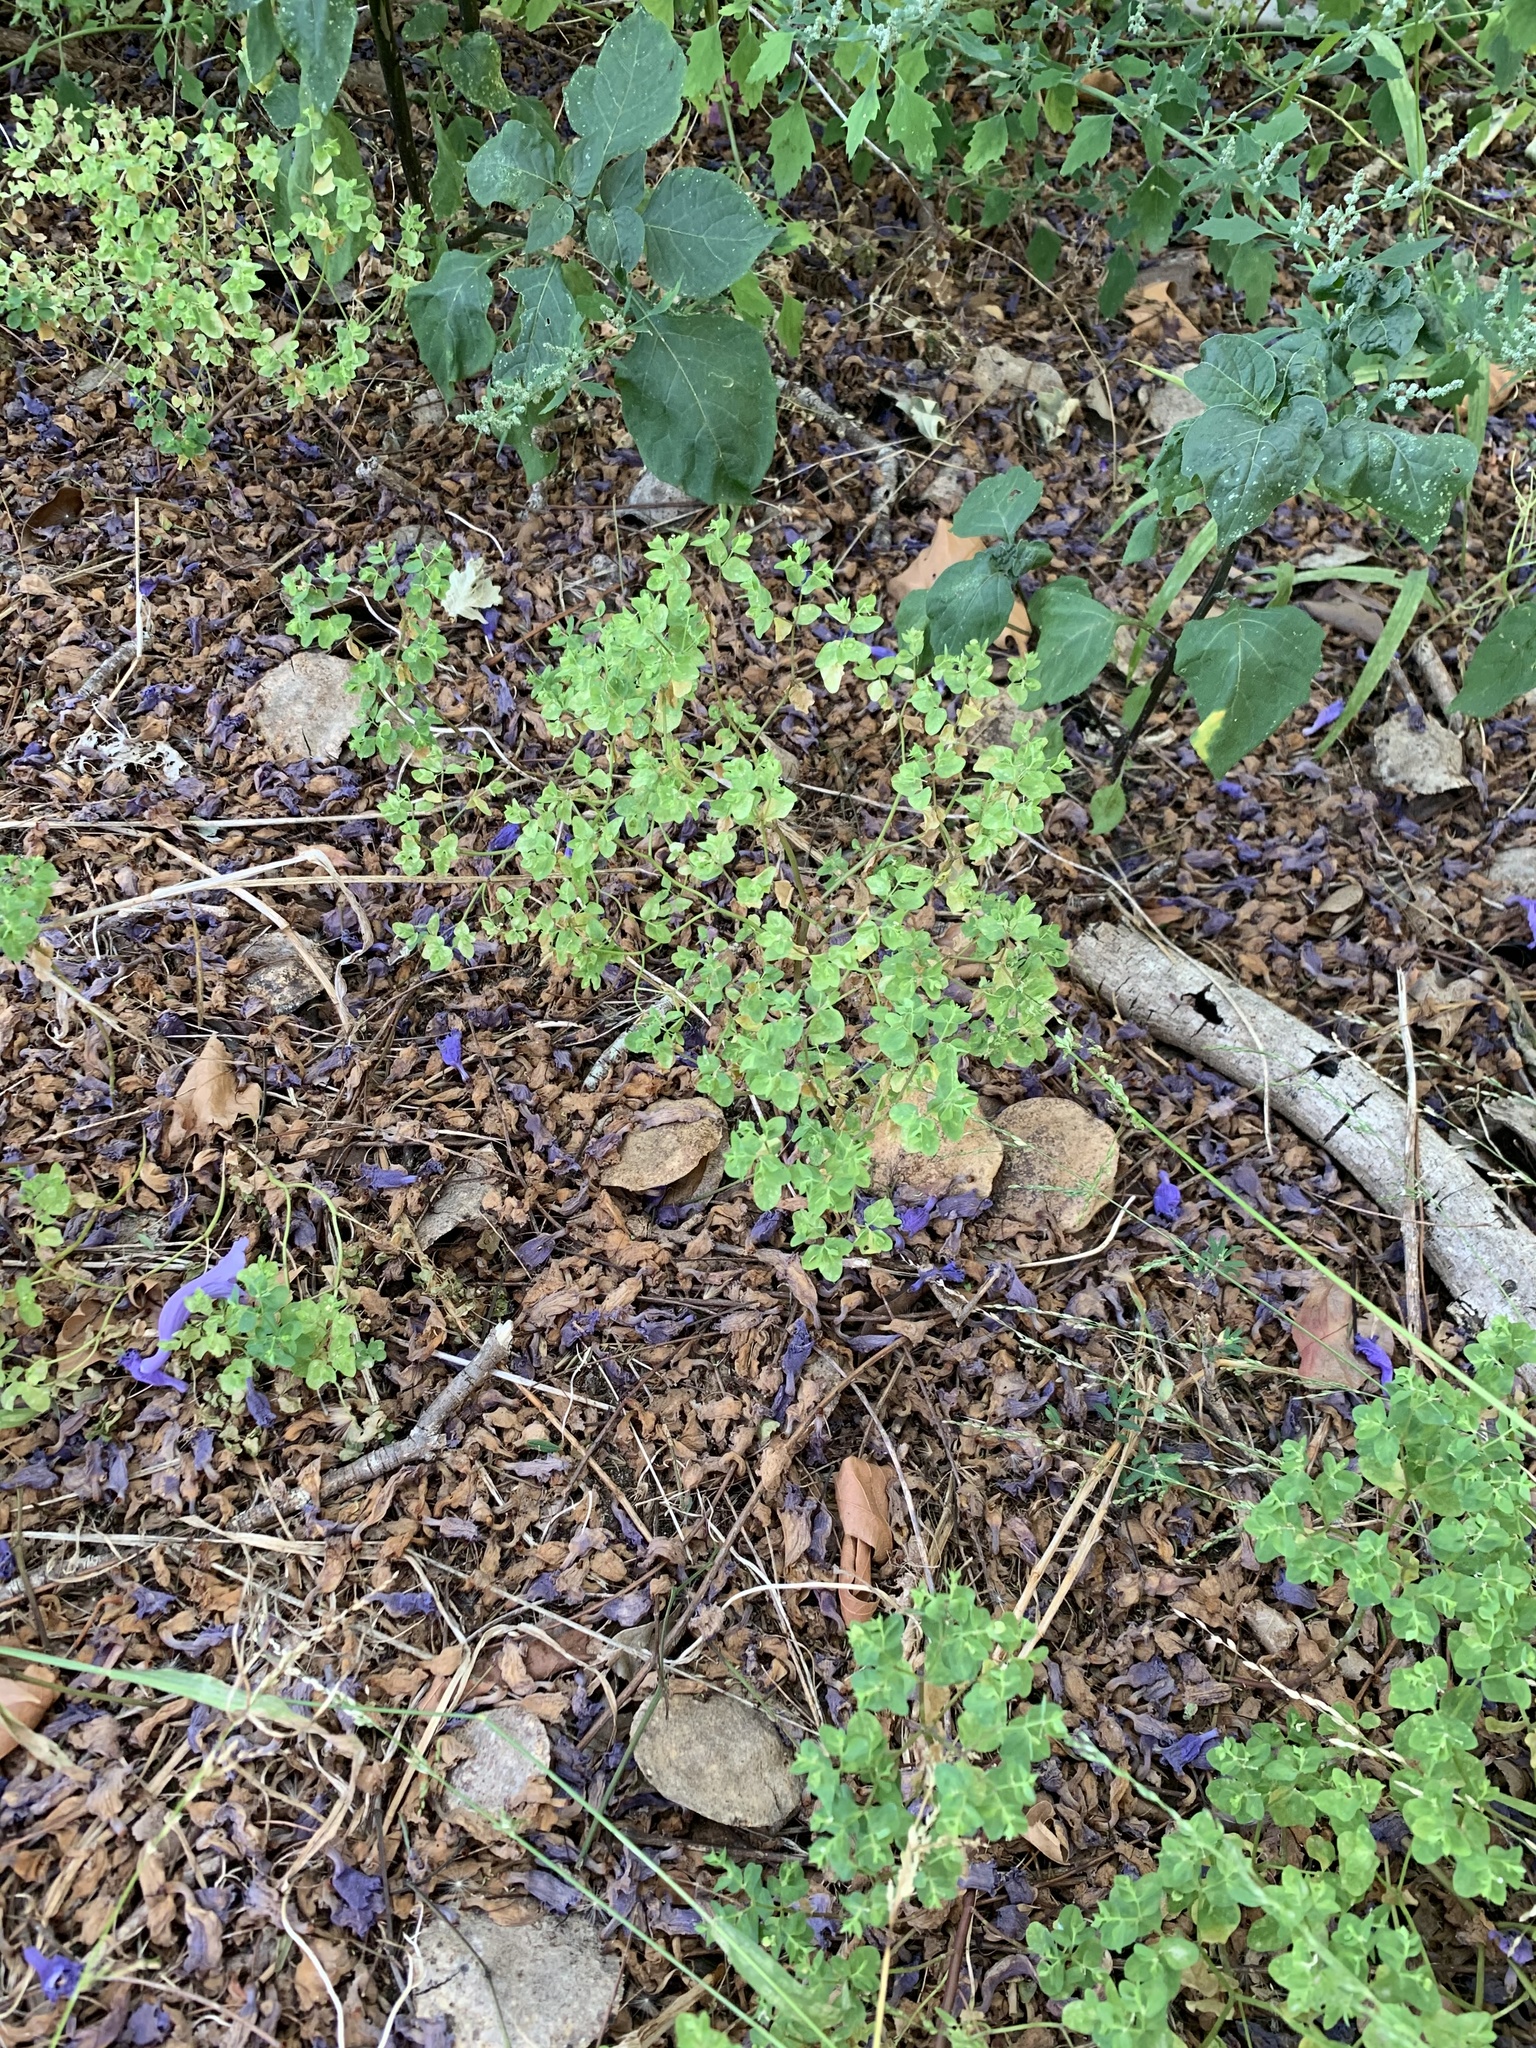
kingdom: Plantae
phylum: Tracheophyta
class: Magnoliopsida
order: Malpighiales
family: Euphorbiaceae
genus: Euphorbia
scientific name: Euphorbia peplus
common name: Petty spurge
